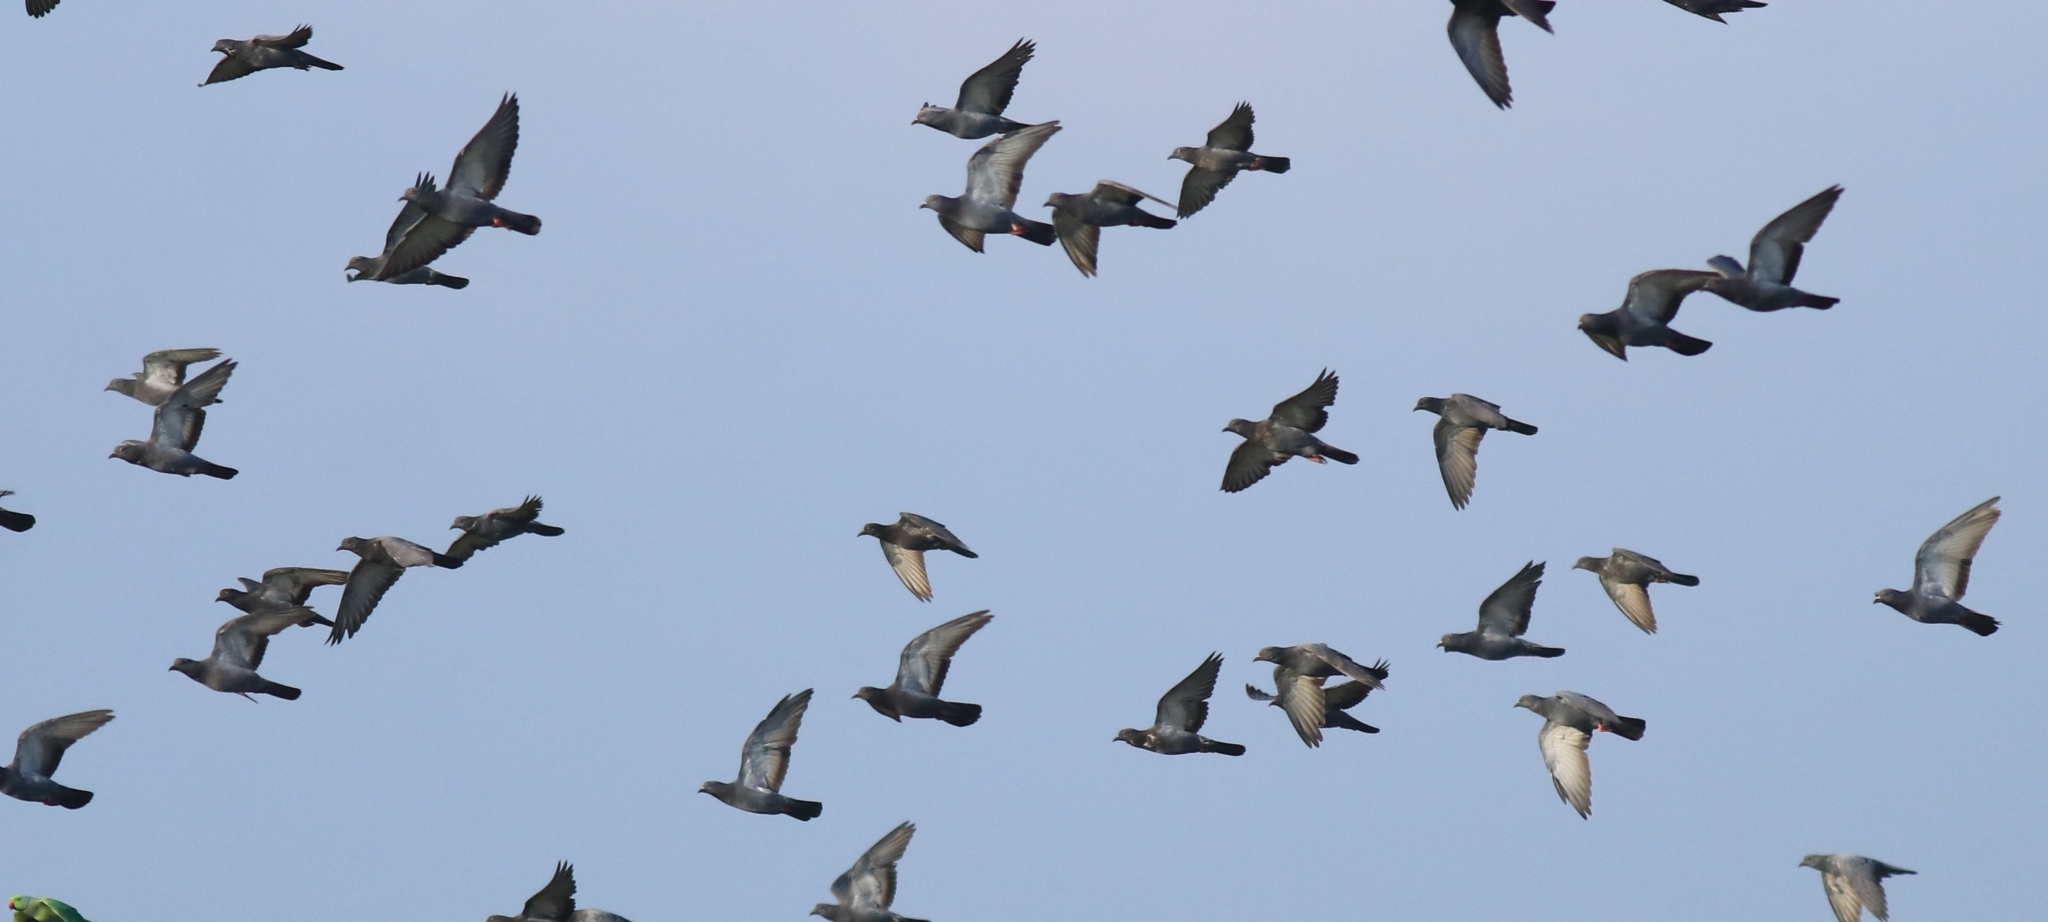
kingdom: Animalia
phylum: Chordata
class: Aves
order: Columbiformes
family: Columbidae
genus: Columba
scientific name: Columba livia
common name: Rock pigeon
